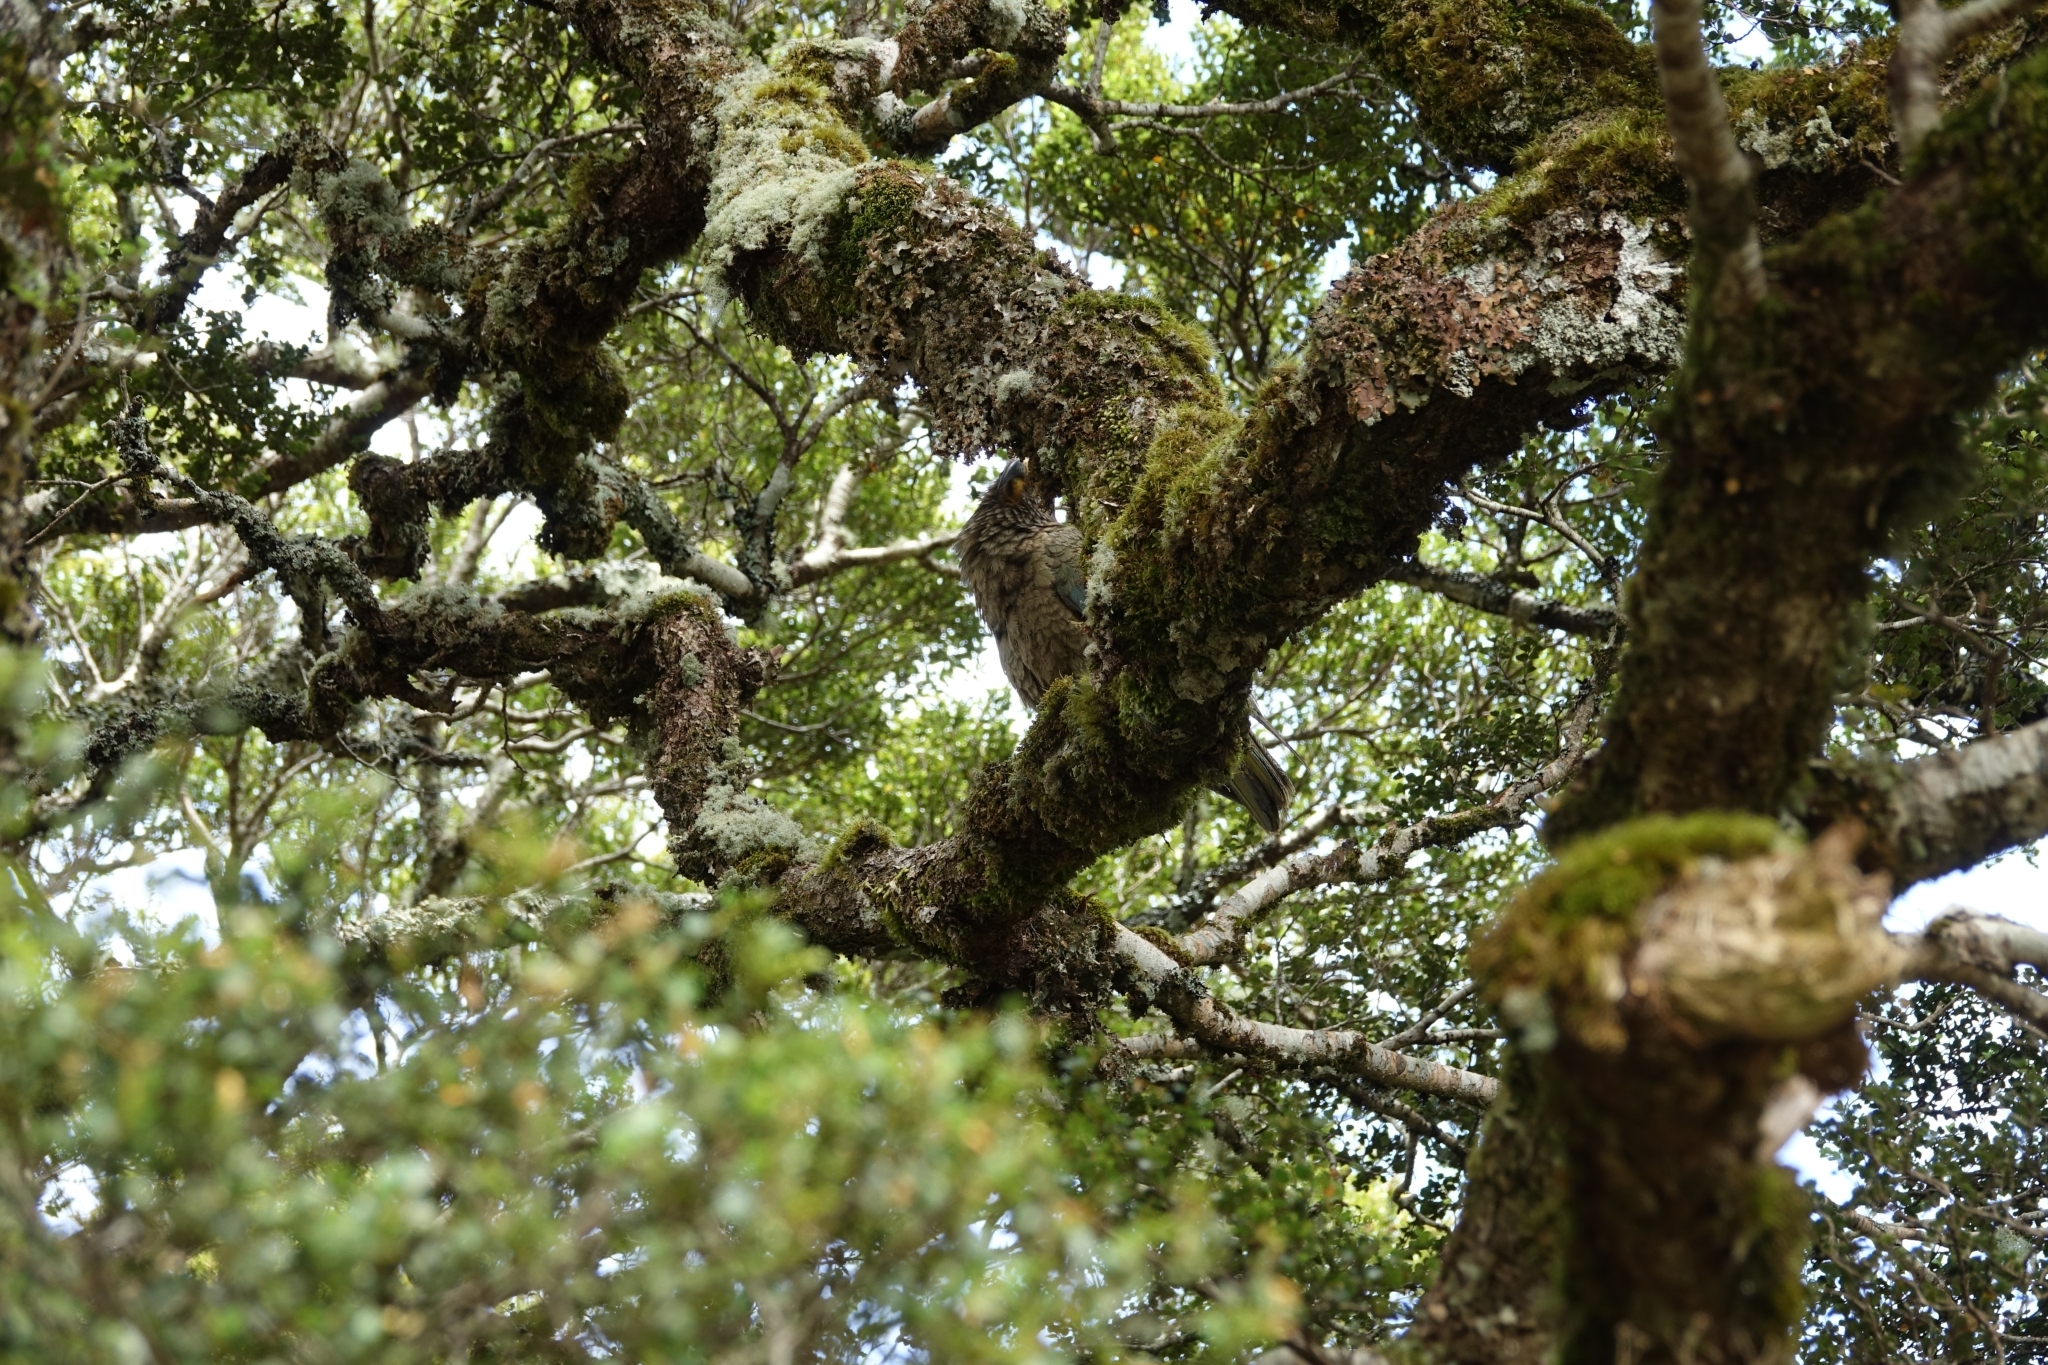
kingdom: Animalia
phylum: Chordata
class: Aves
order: Psittaciformes
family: Psittacidae
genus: Nestor
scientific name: Nestor notabilis
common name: Kea
